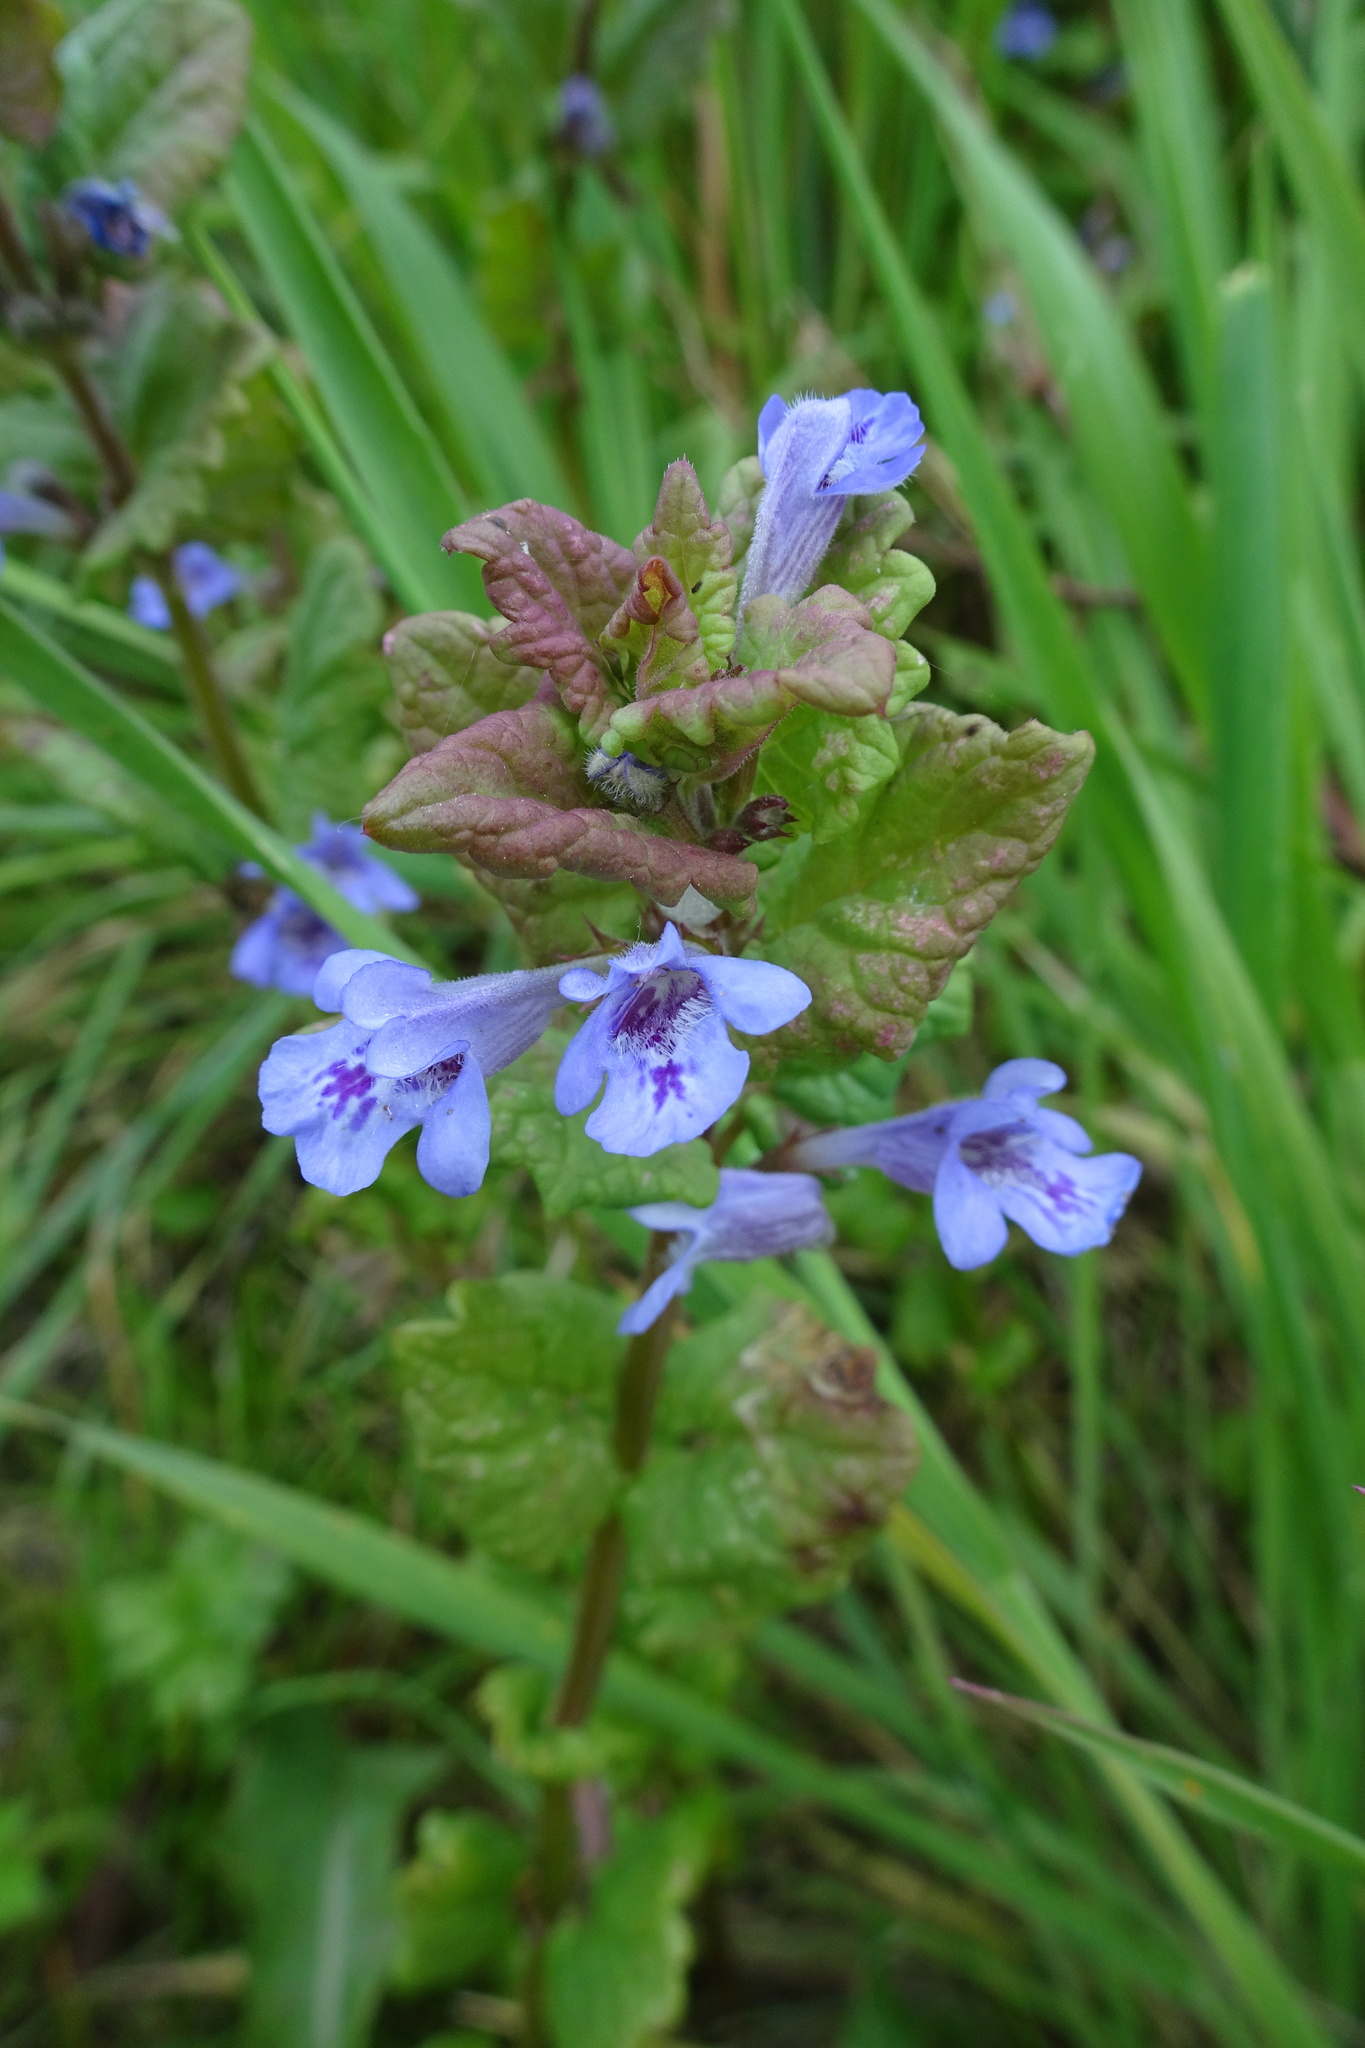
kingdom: Plantae
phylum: Tracheophyta
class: Magnoliopsida
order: Lamiales
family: Lamiaceae
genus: Glechoma
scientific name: Glechoma hederacea
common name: Ground ivy
